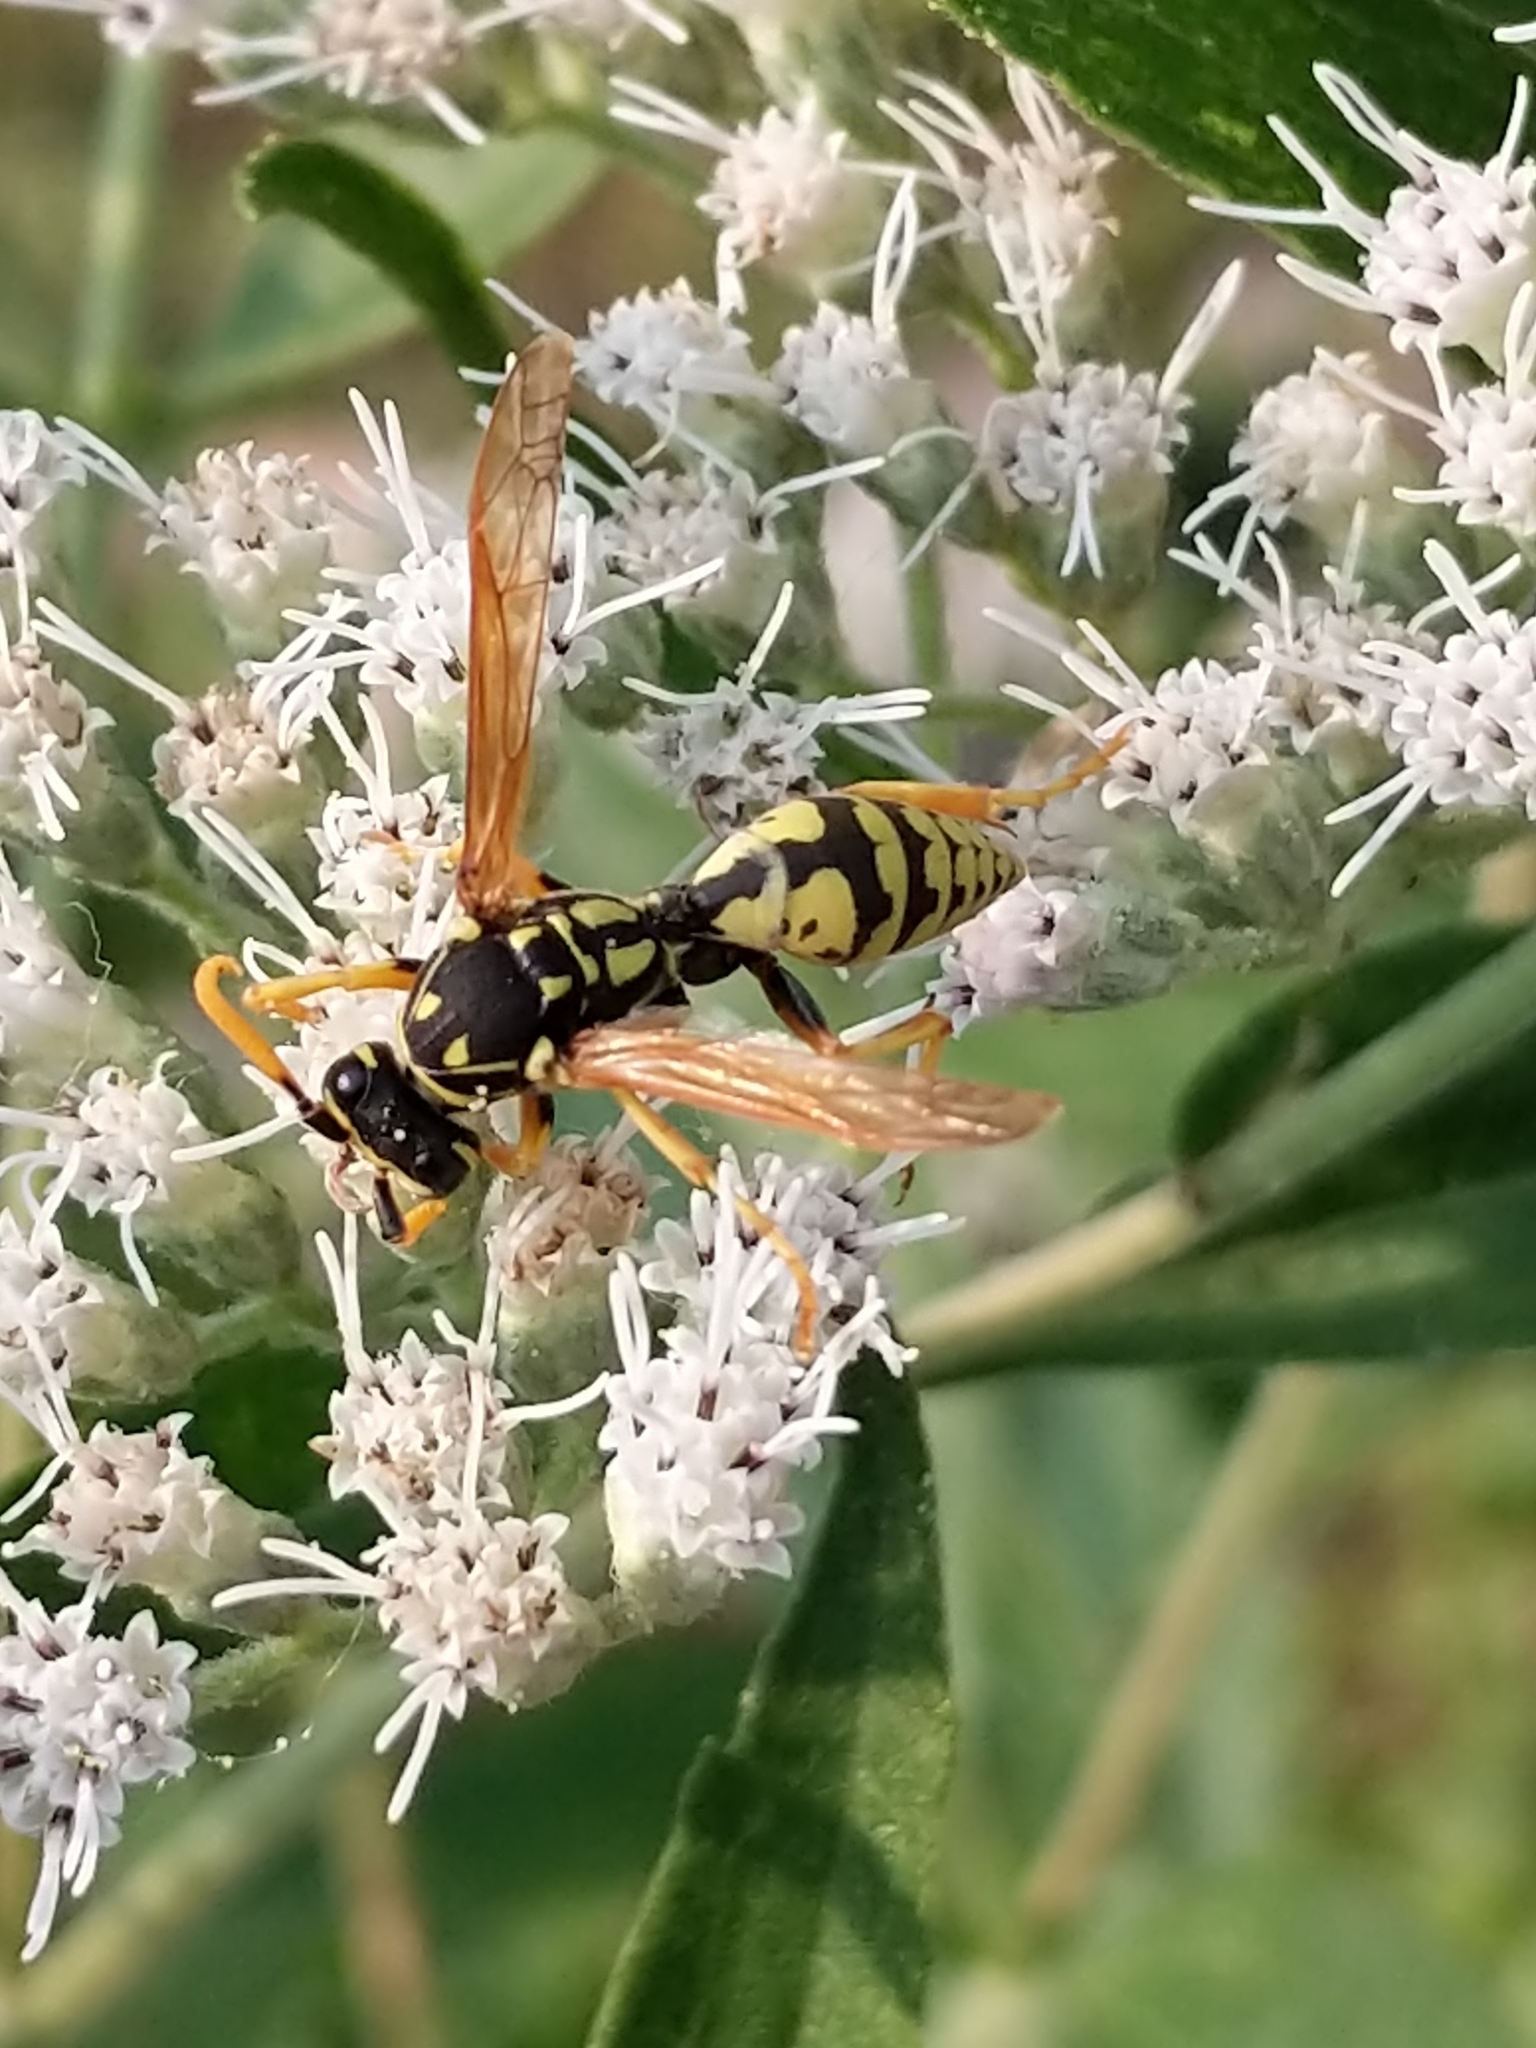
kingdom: Animalia
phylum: Arthropoda
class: Insecta
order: Hymenoptera
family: Eumenidae
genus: Polistes
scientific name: Polistes dominula
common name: Paper wasp
